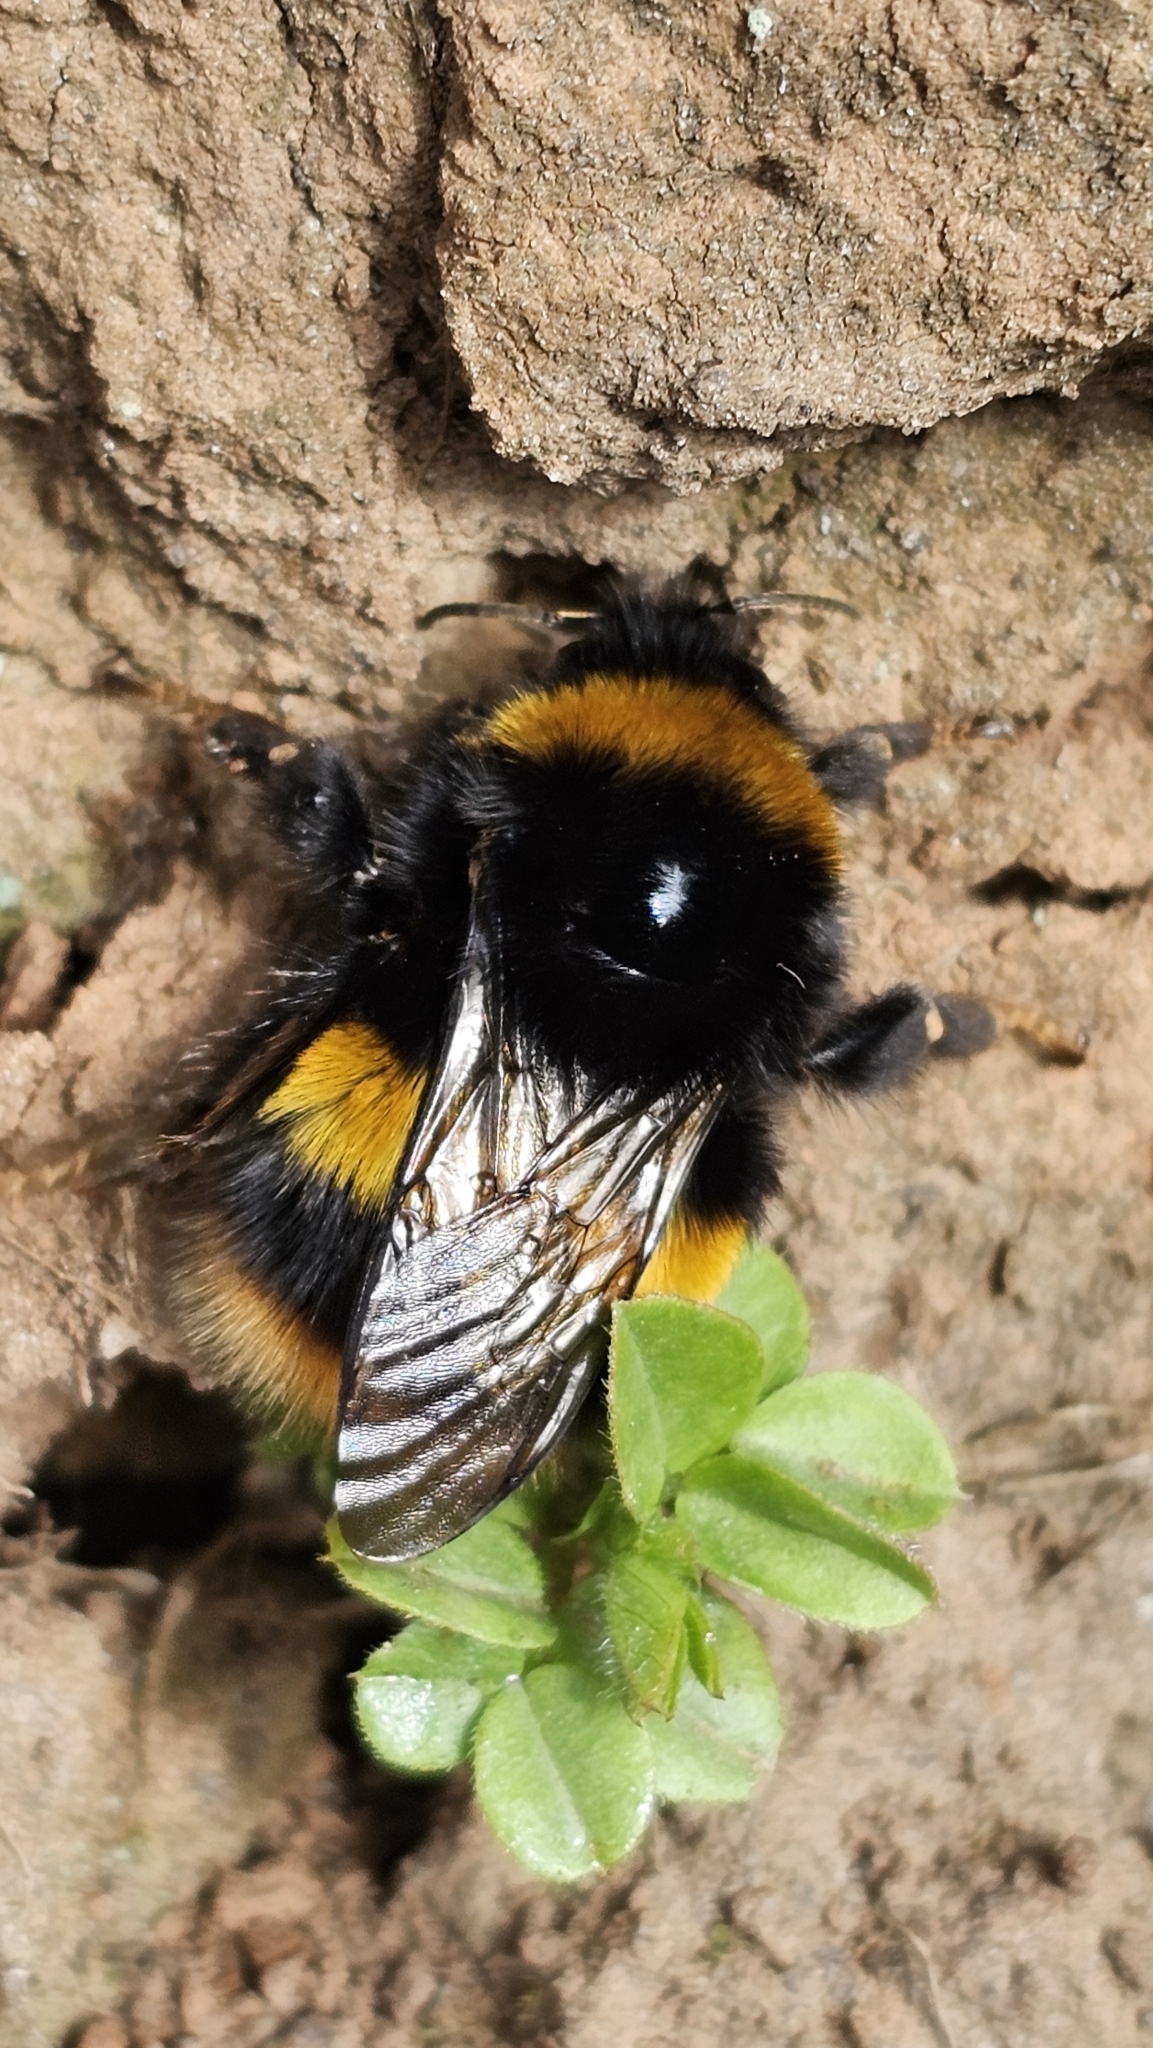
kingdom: Animalia
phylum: Arthropoda
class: Insecta
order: Hymenoptera
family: Apidae
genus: Bombus
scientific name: Bombus terrestris
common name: Buff-tailed bumblebee
